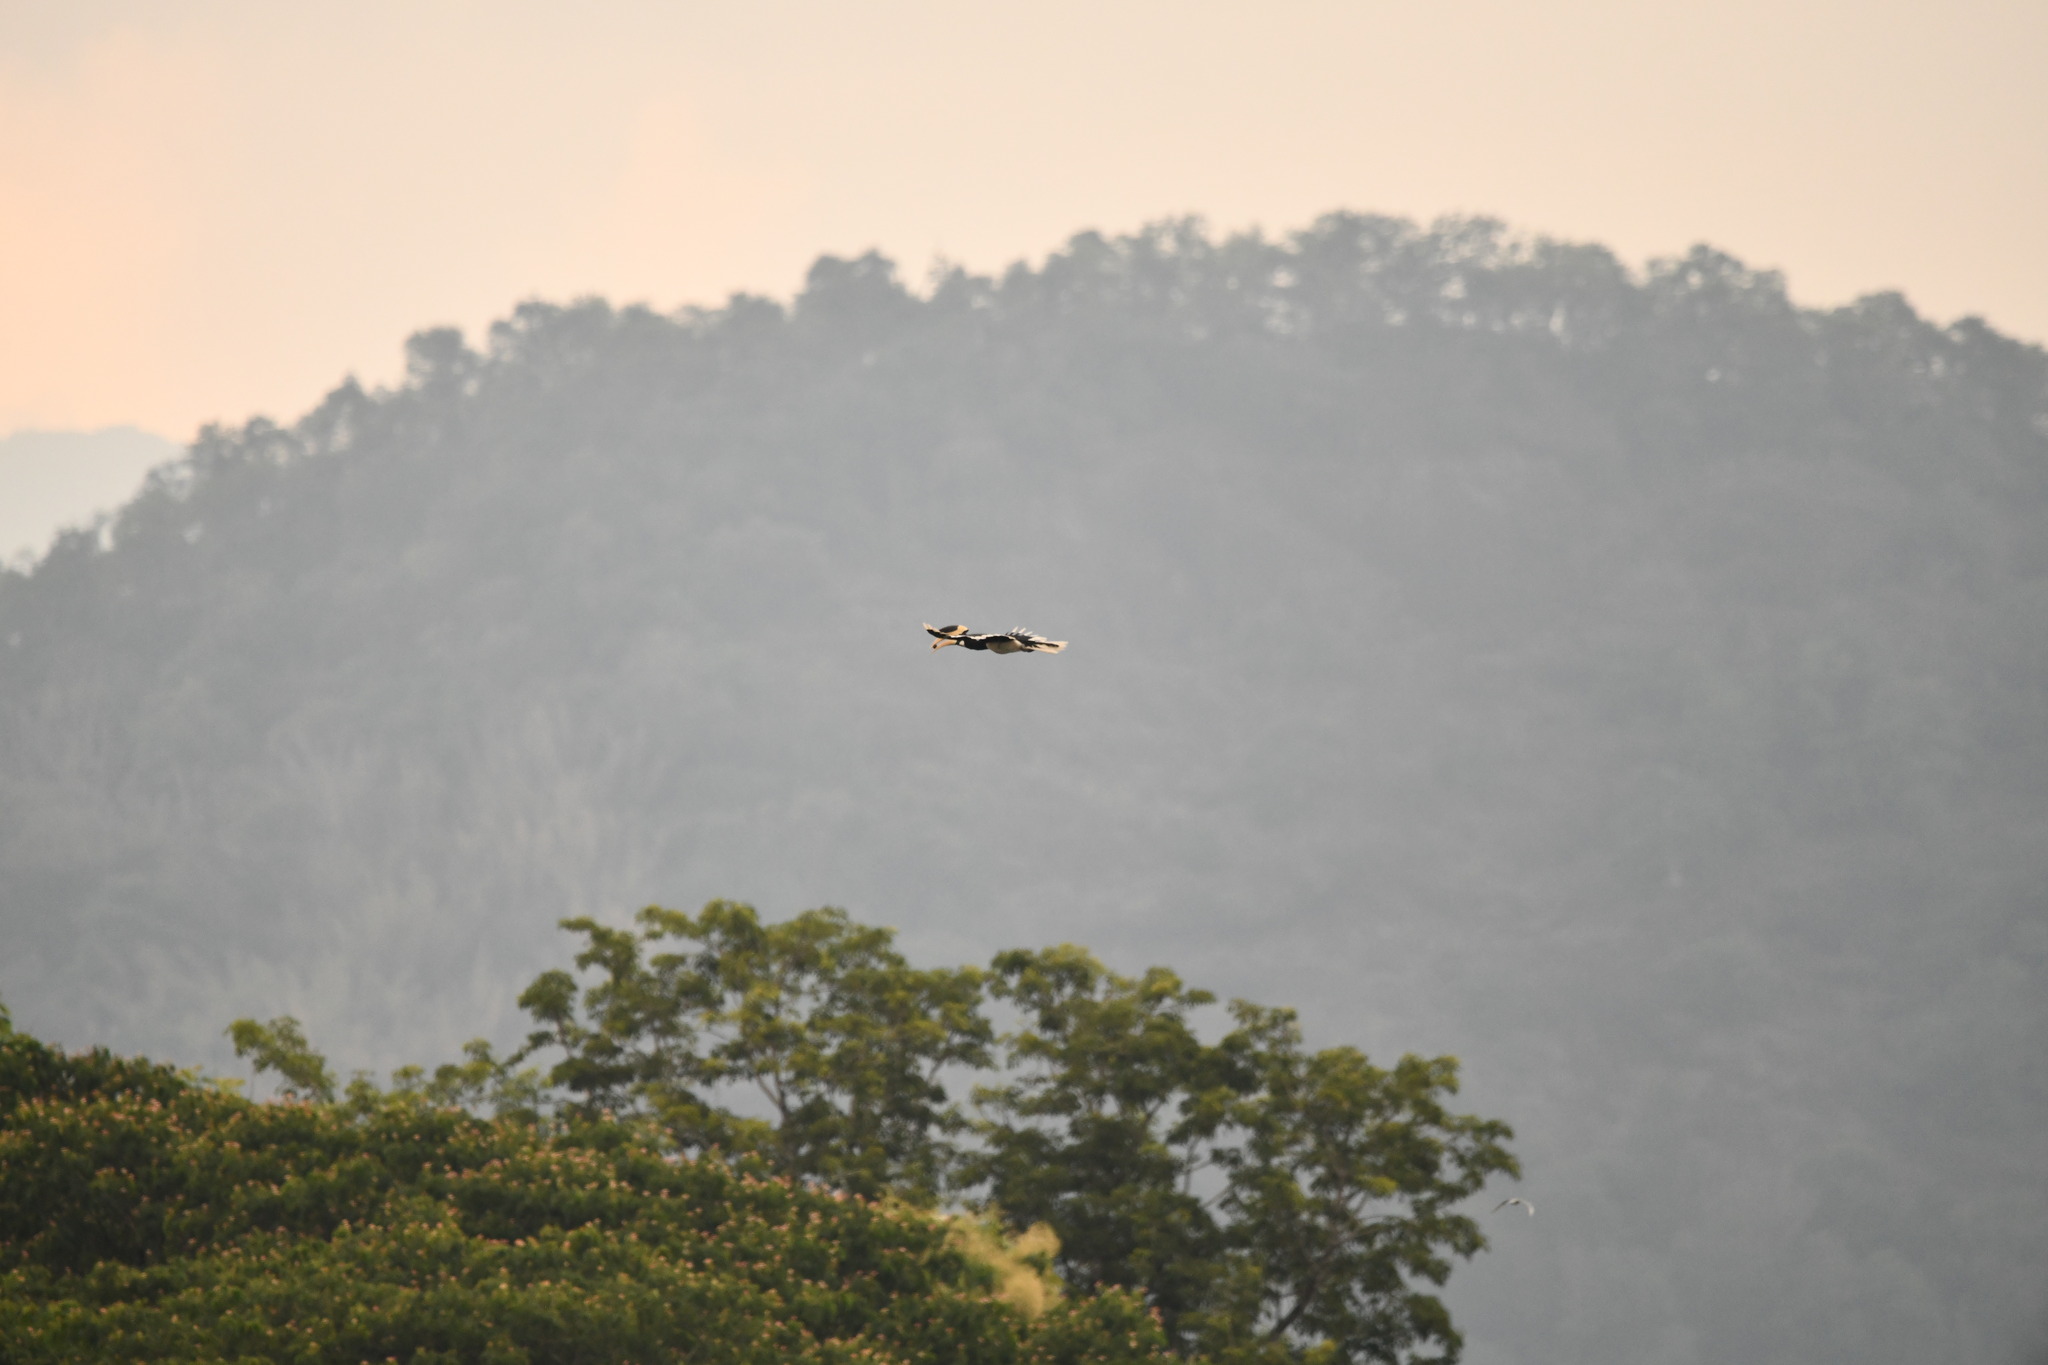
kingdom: Animalia
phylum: Chordata
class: Aves
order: Bucerotiformes
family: Bucerotidae
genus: Anthracoceros
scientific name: Anthracoceros coronatus
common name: Malabar pied hornbill
